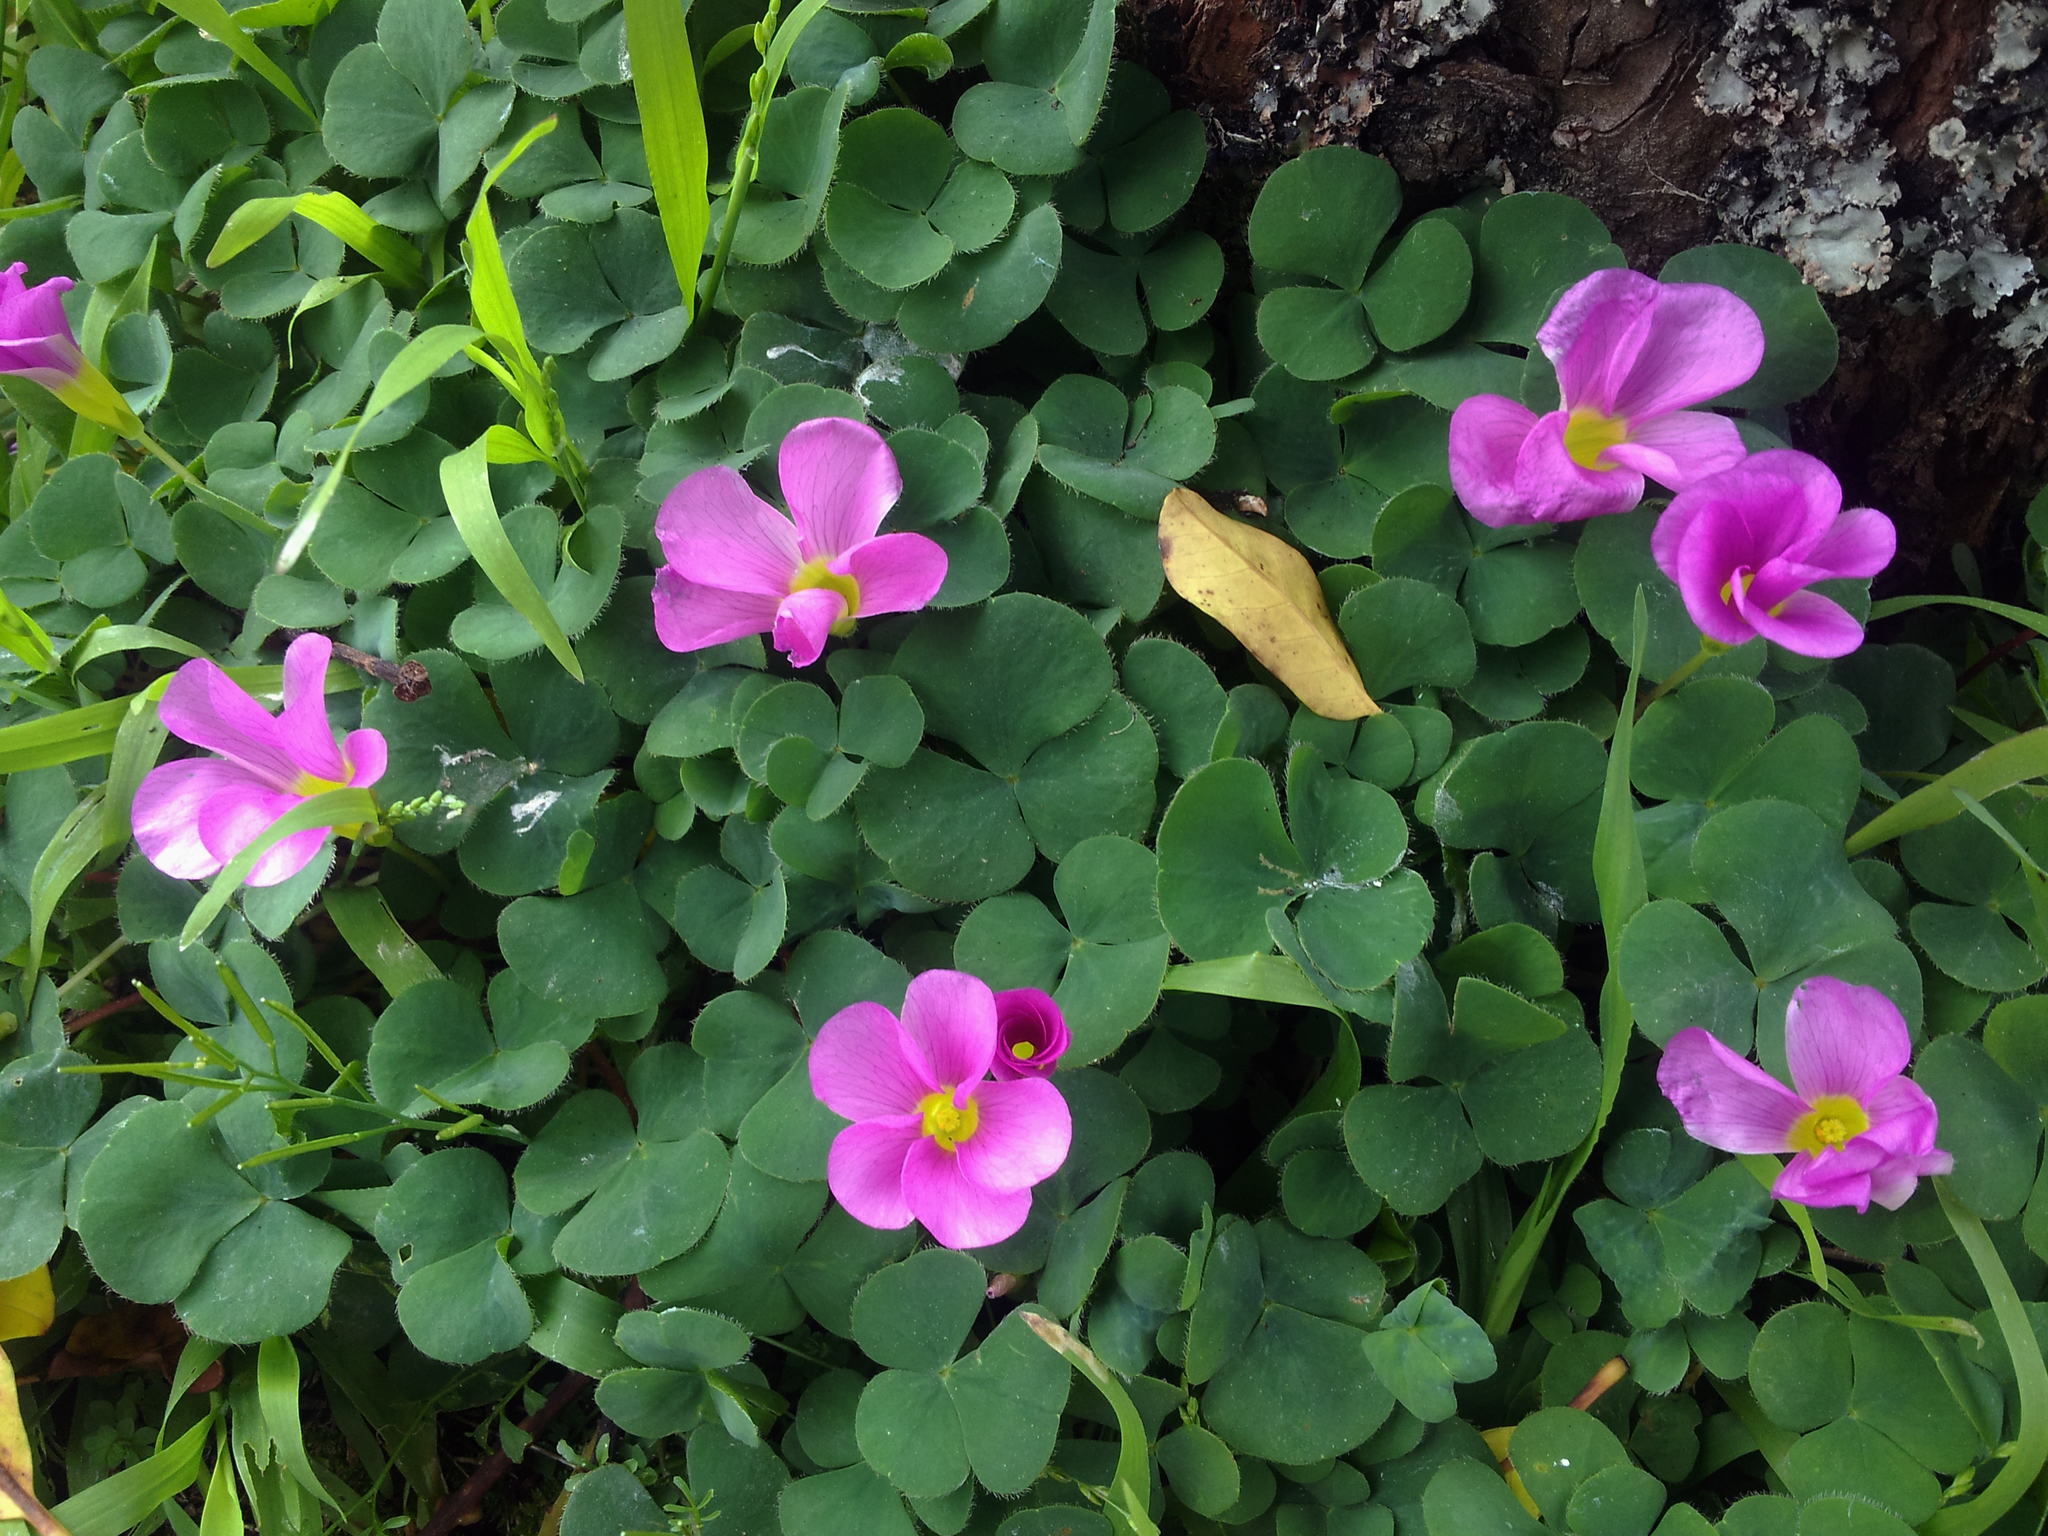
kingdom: Plantae
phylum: Tracheophyta
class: Magnoliopsida
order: Oxalidales
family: Oxalidaceae
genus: Oxalis
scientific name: Oxalis purpurea
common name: Purple woodsorrel
